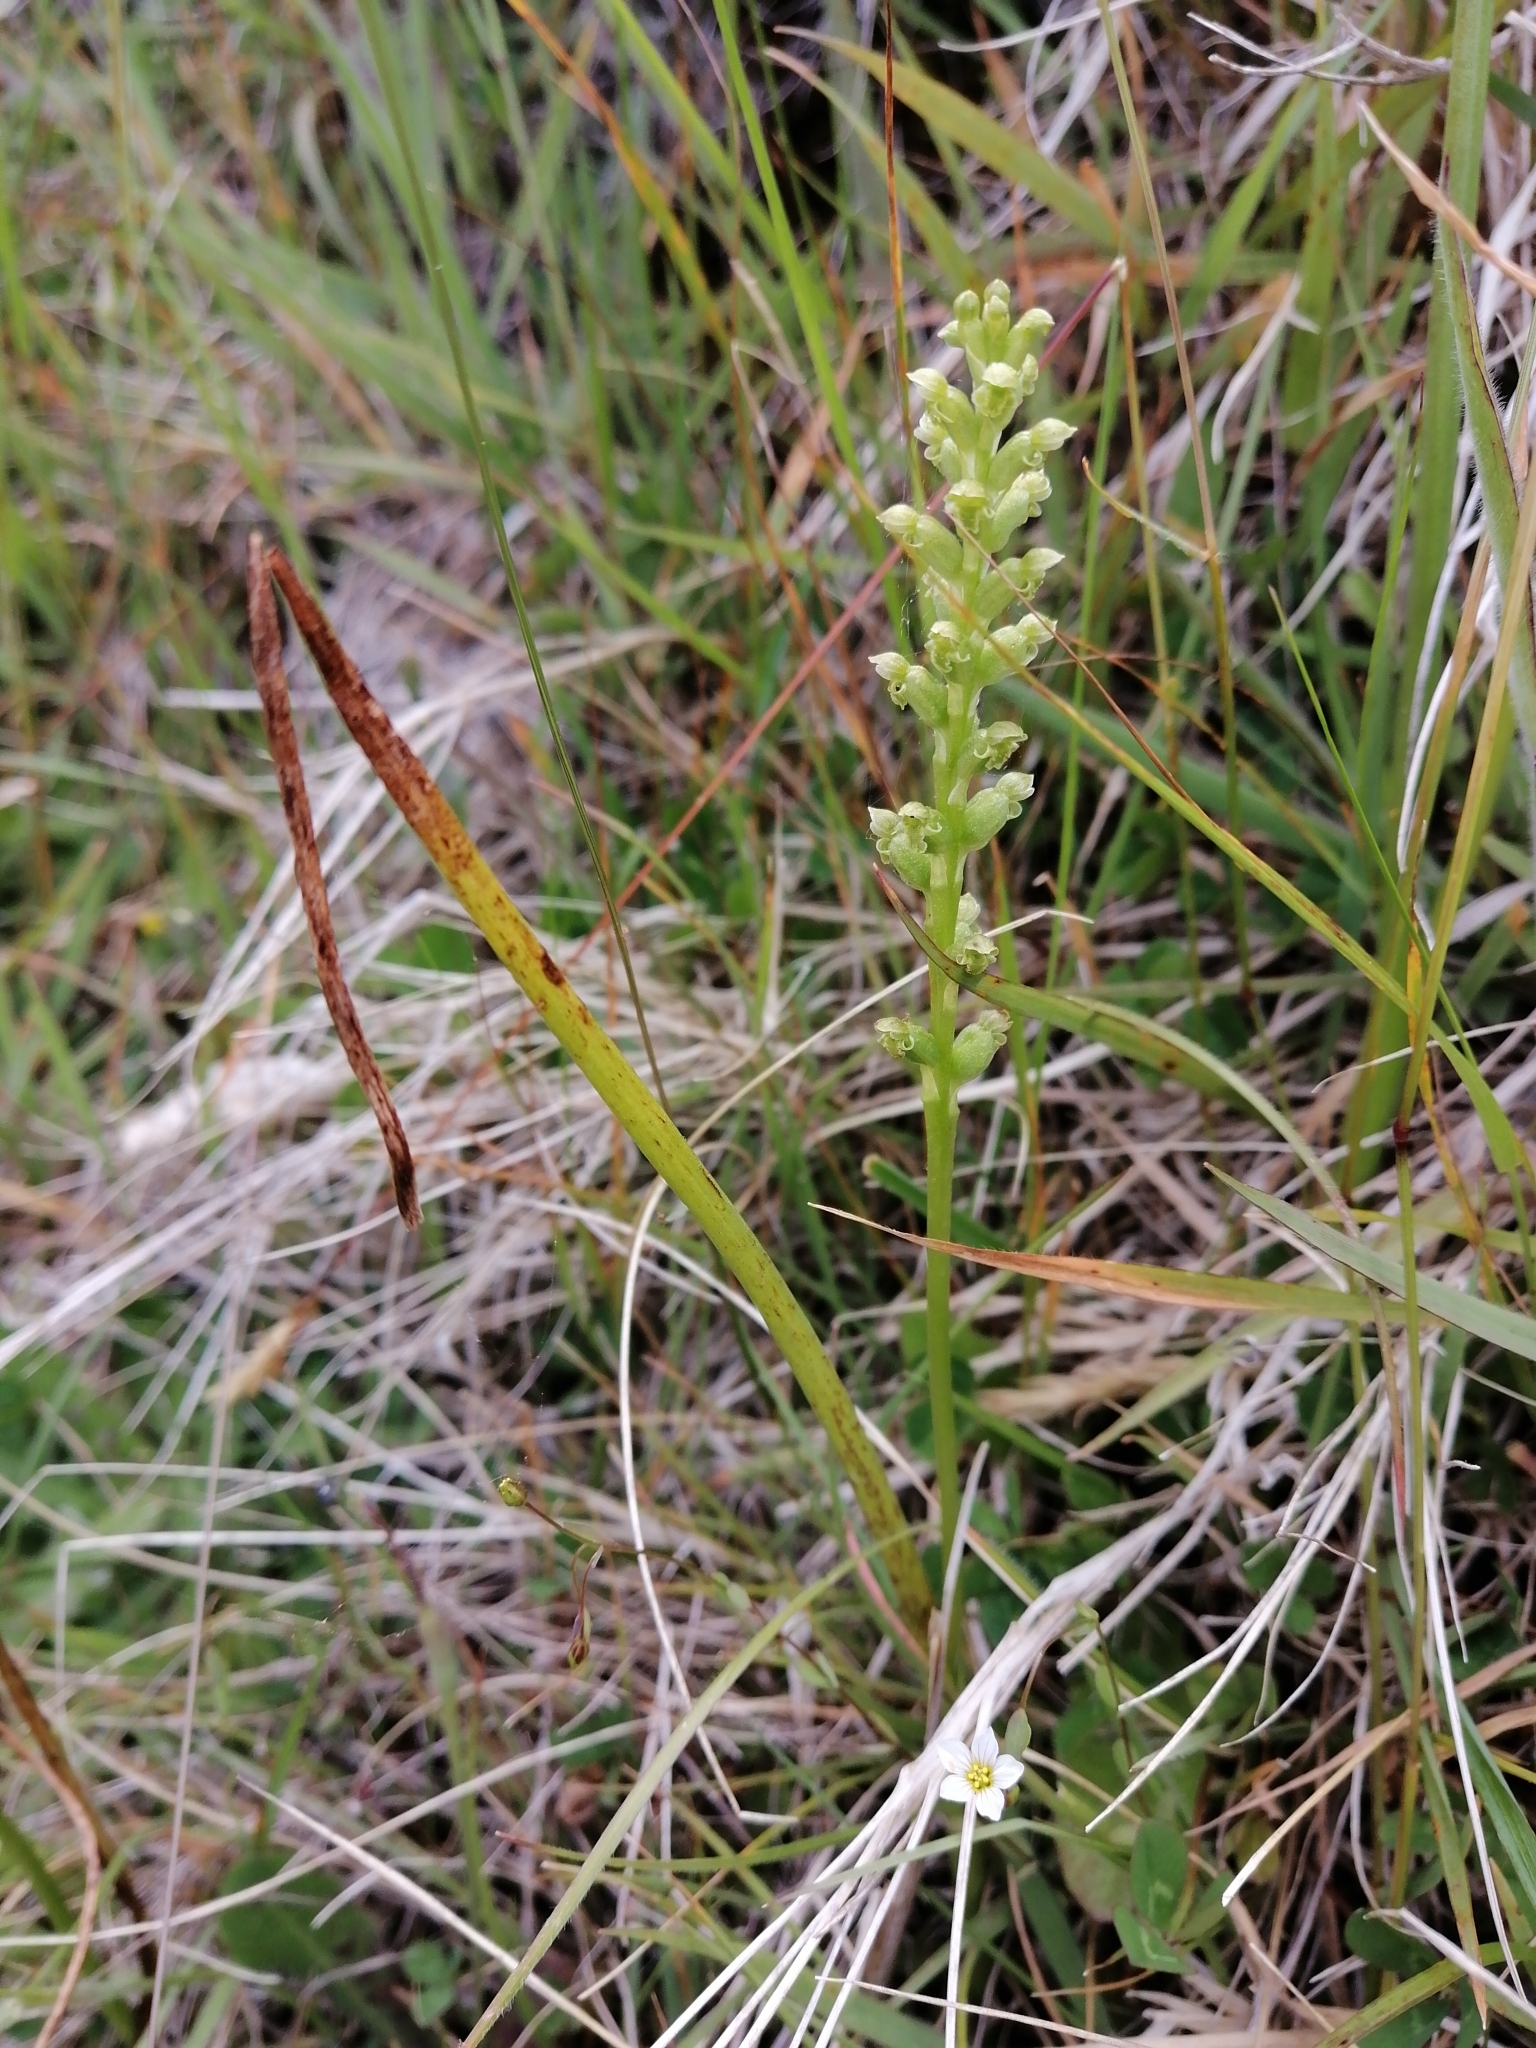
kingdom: Plantae
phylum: Tracheophyta
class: Liliopsida
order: Asparagales
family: Orchidaceae
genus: Microtis
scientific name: Microtis unifolia
